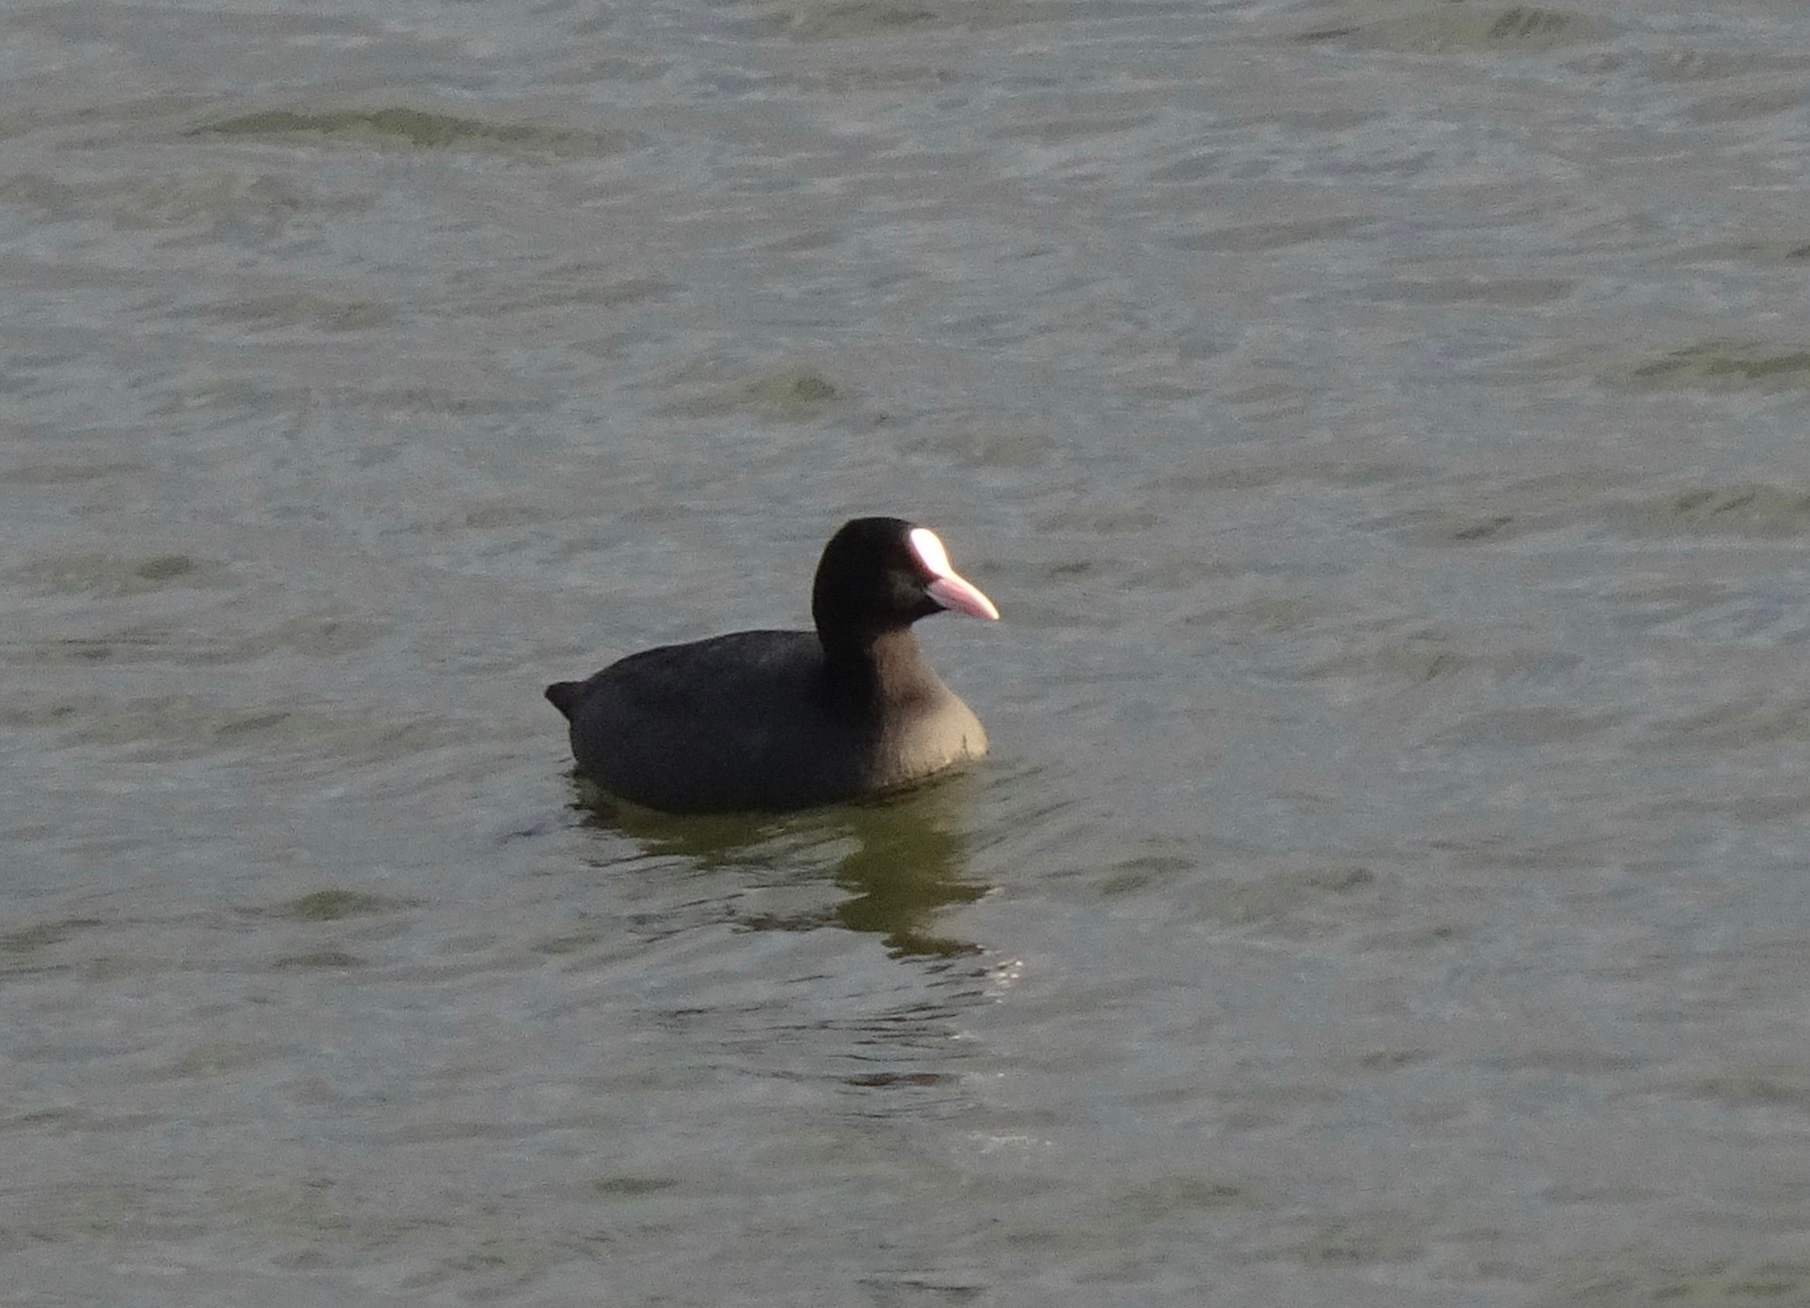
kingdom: Animalia
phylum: Chordata
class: Aves
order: Gruiformes
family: Rallidae
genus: Fulica
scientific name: Fulica atra
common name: Eurasian coot
